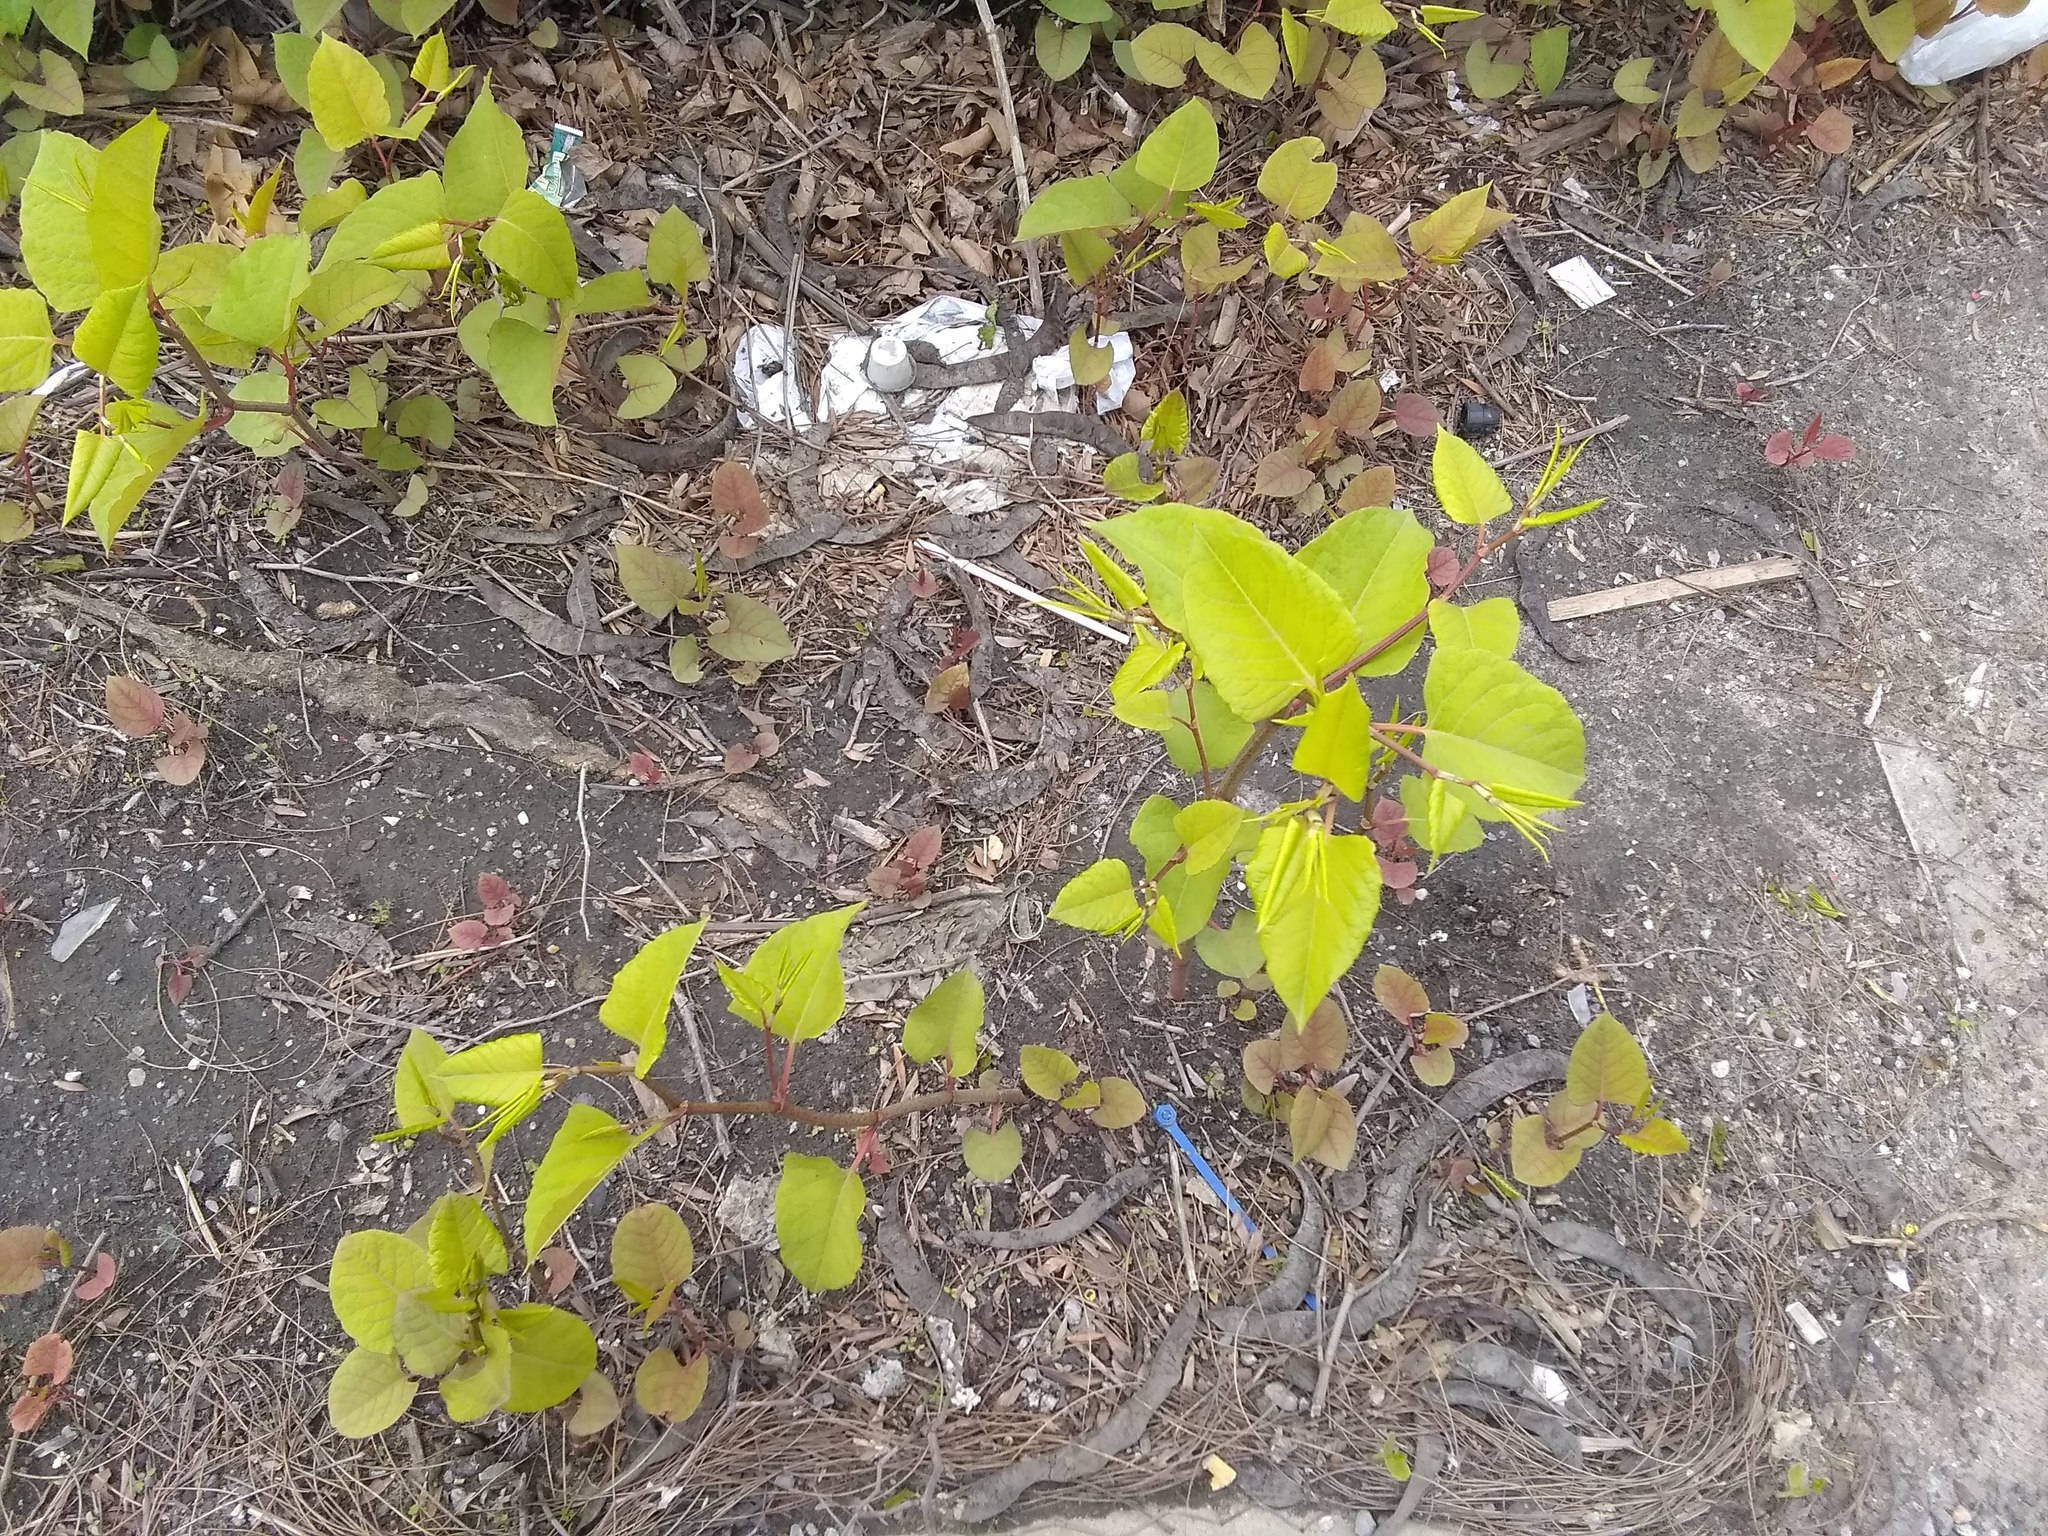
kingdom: Plantae
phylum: Tracheophyta
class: Magnoliopsida
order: Caryophyllales
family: Polygonaceae
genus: Reynoutria
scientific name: Reynoutria japonica
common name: Japanese knotweed
